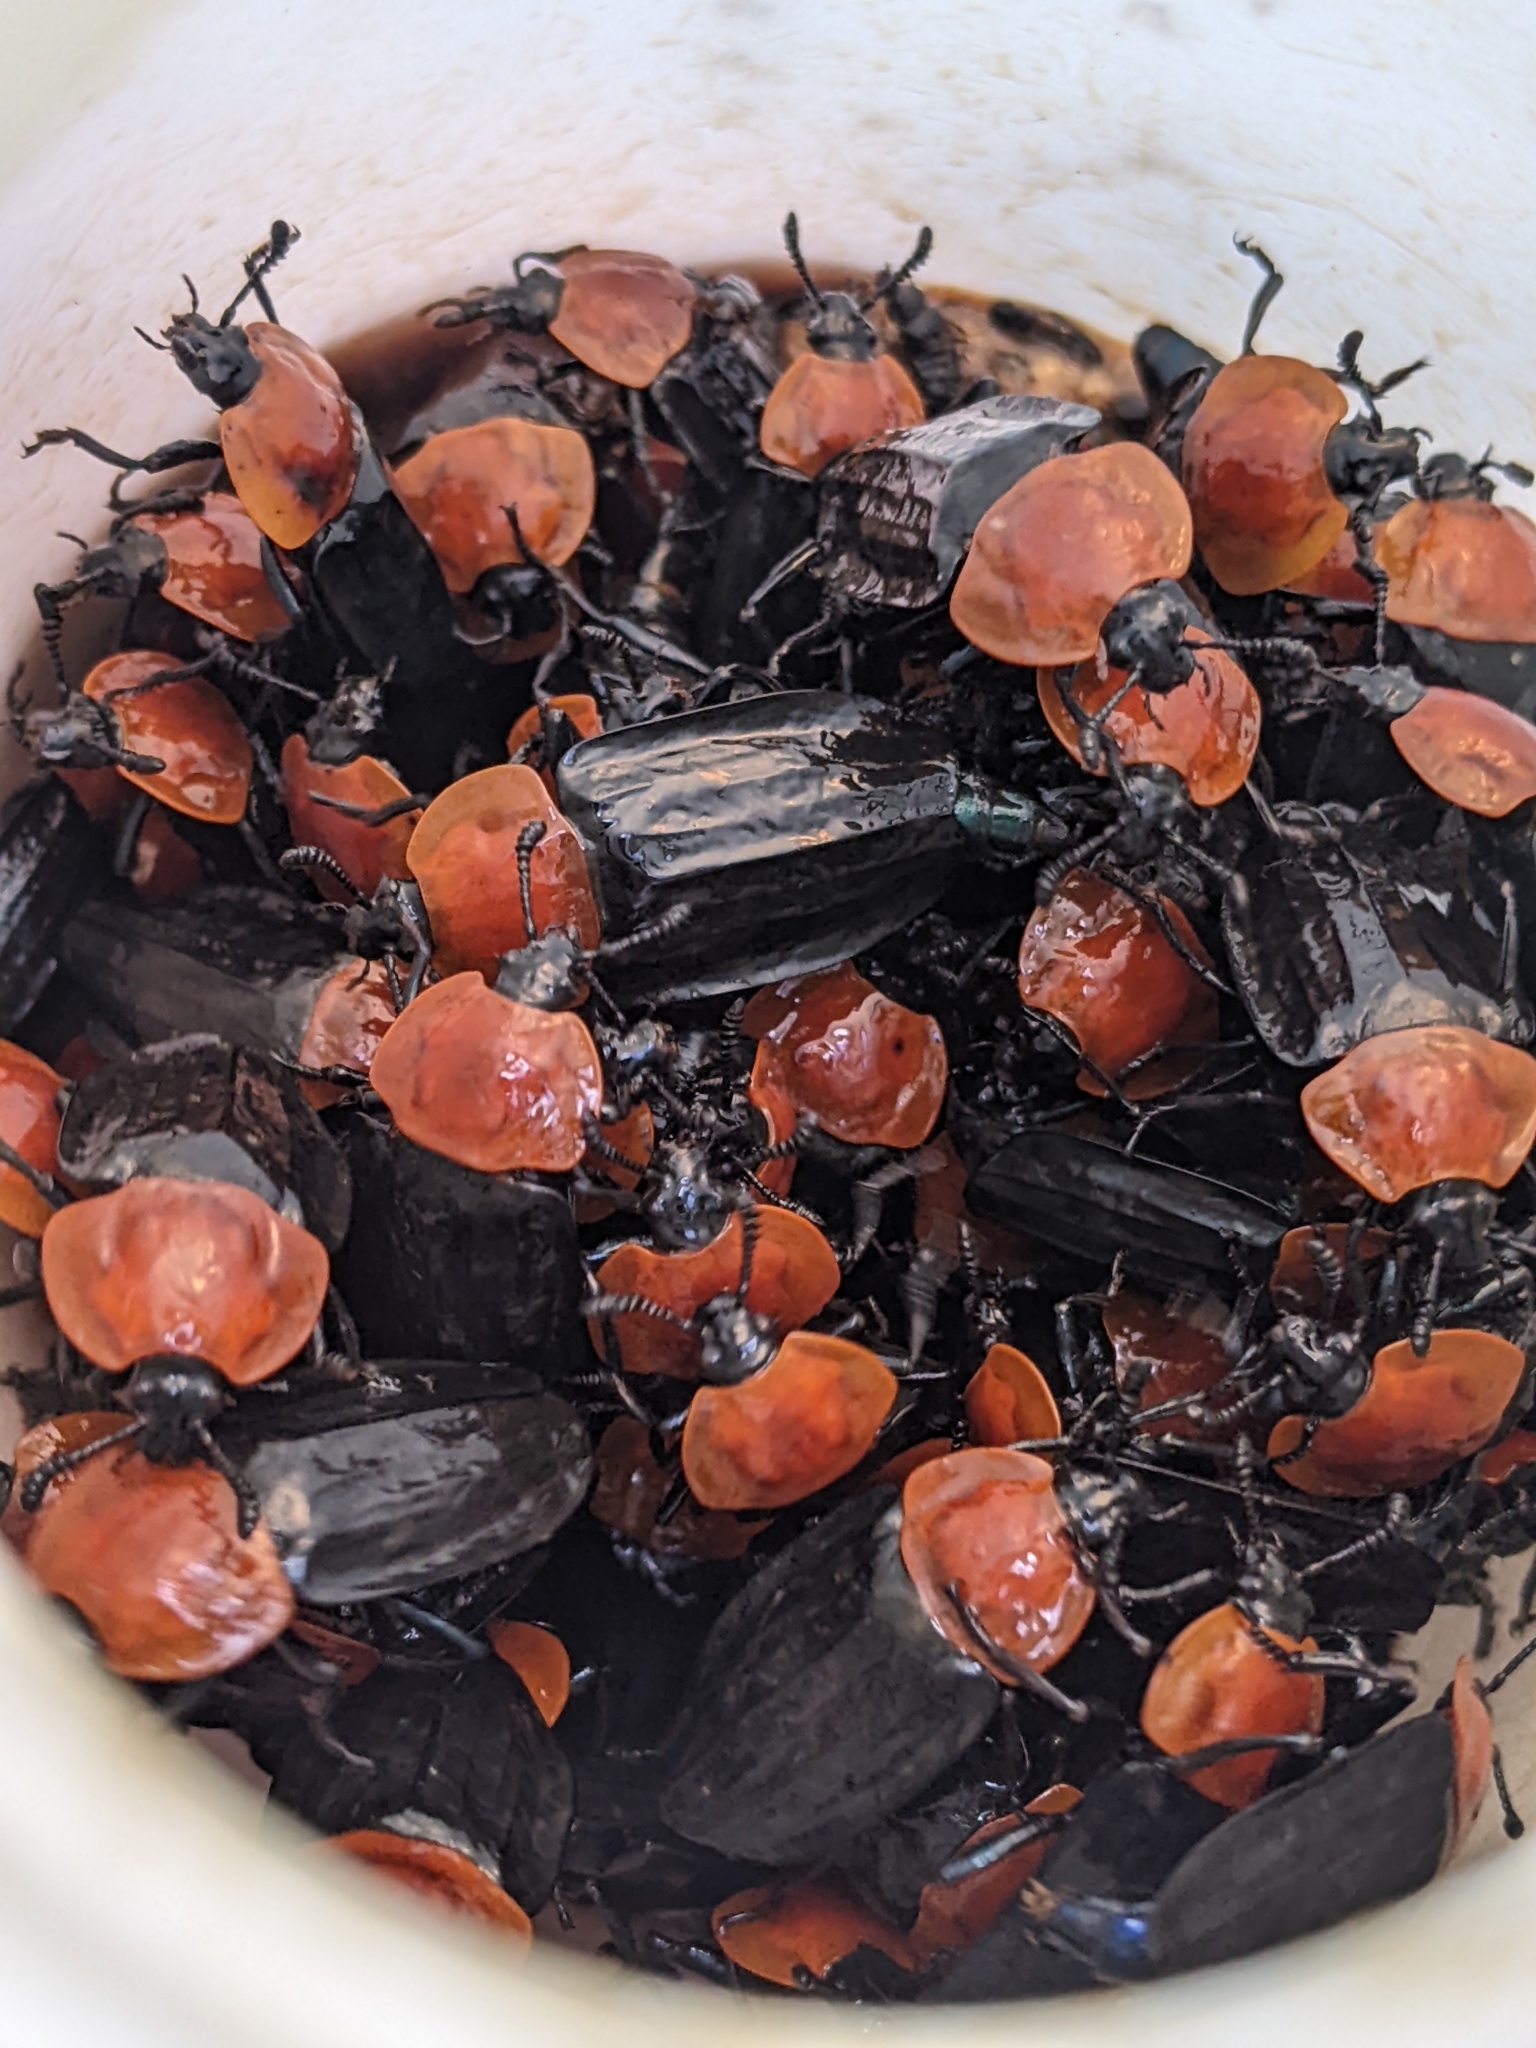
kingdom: Animalia
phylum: Arthropoda
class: Insecta
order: Coleoptera
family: Staphylinidae
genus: Necrophila
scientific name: Necrophila cyaneocephala
